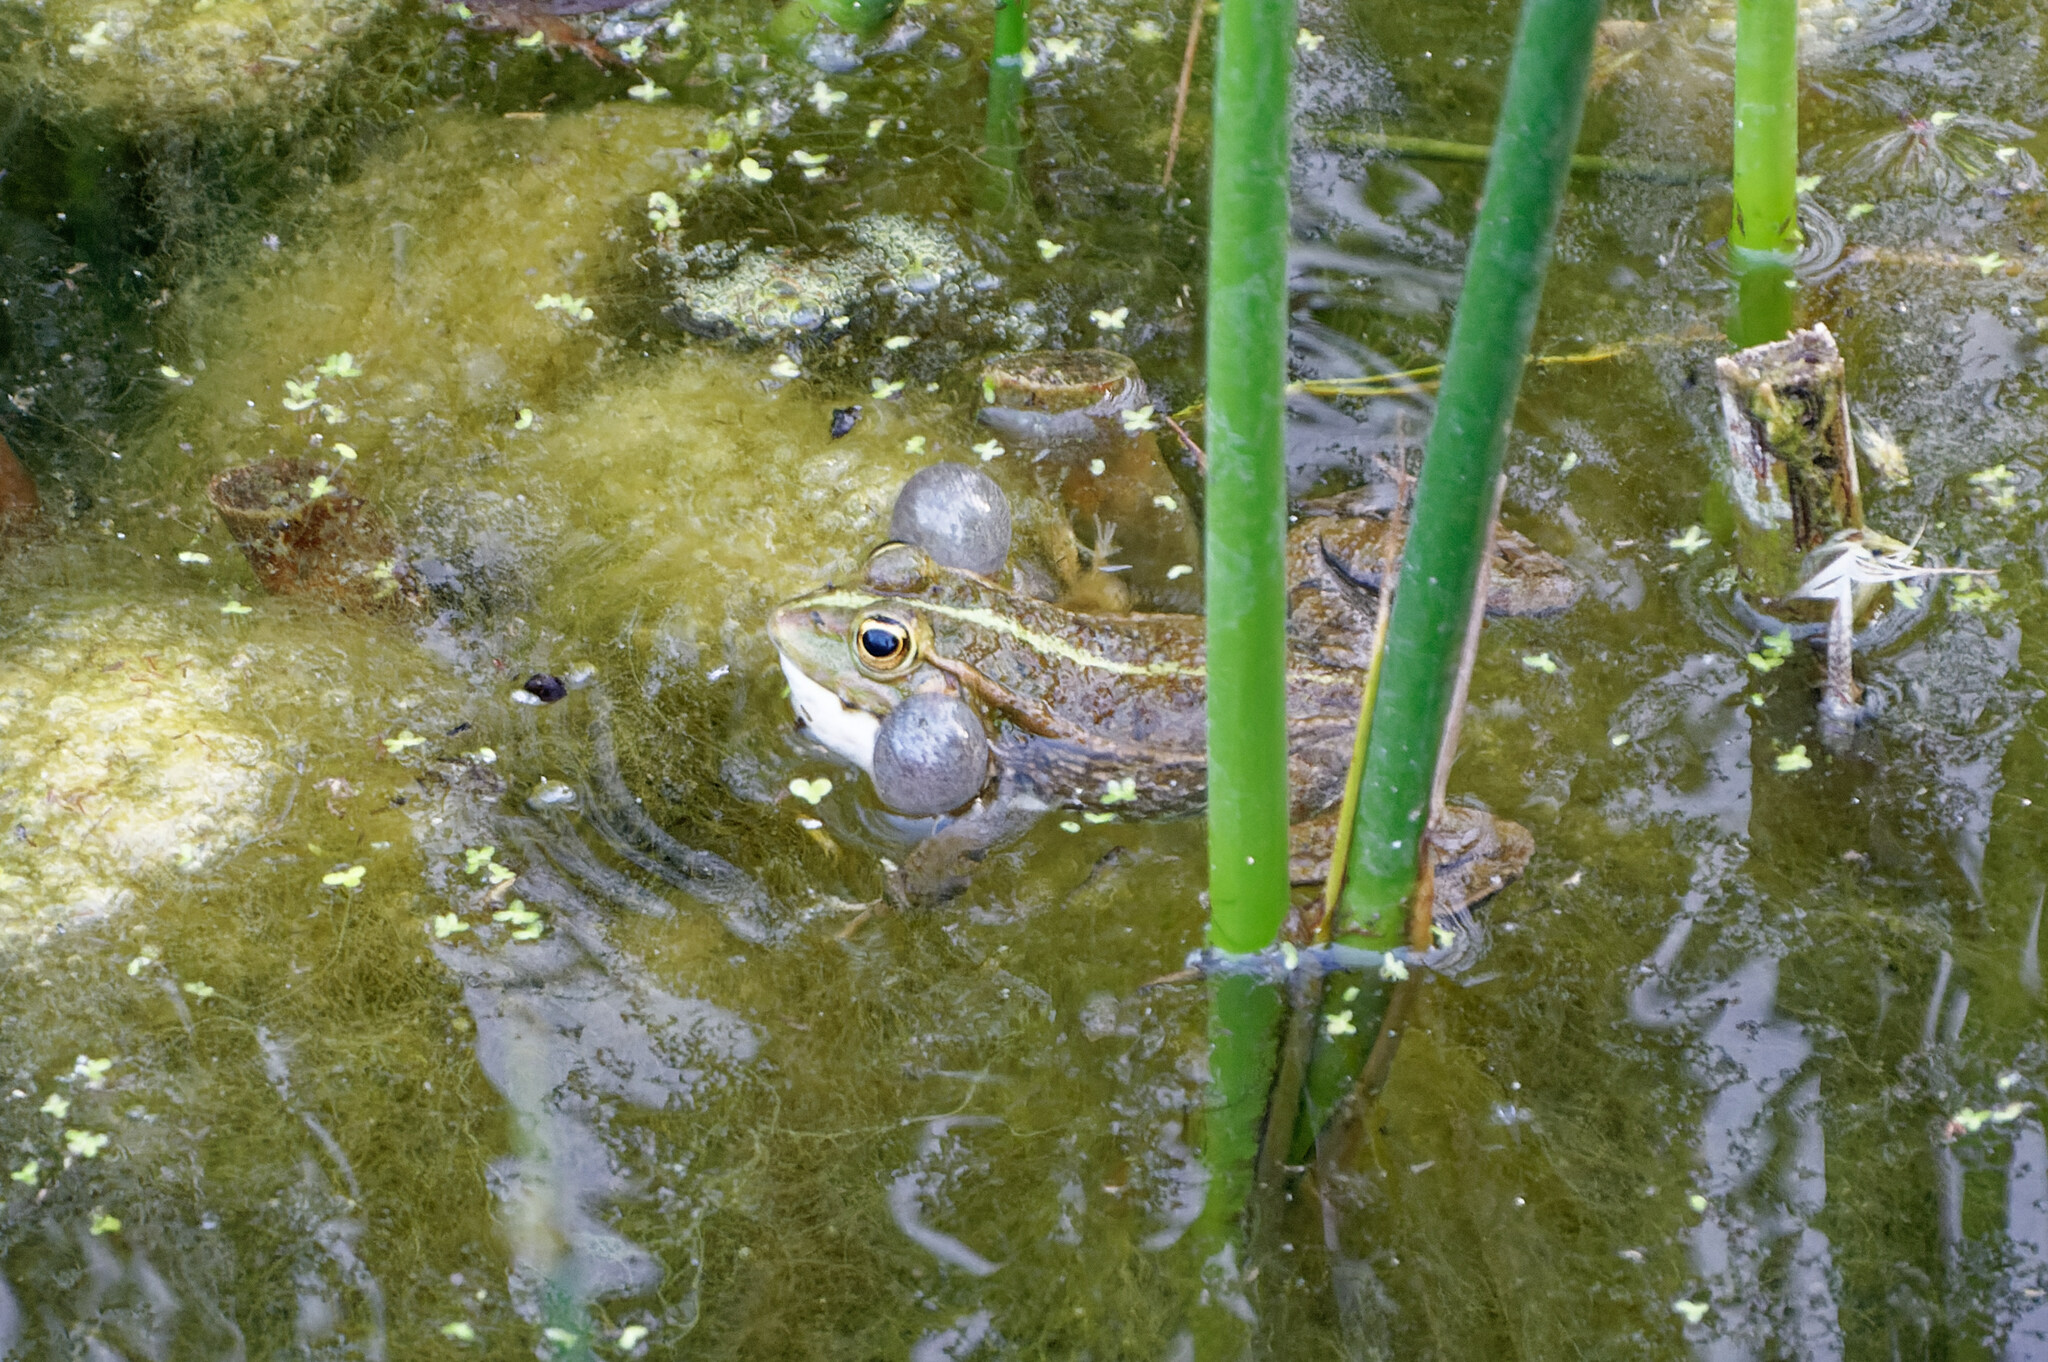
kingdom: Animalia
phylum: Chordata
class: Amphibia
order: Anura
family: Ranidae
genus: Pelophylax
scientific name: Pelophylax
